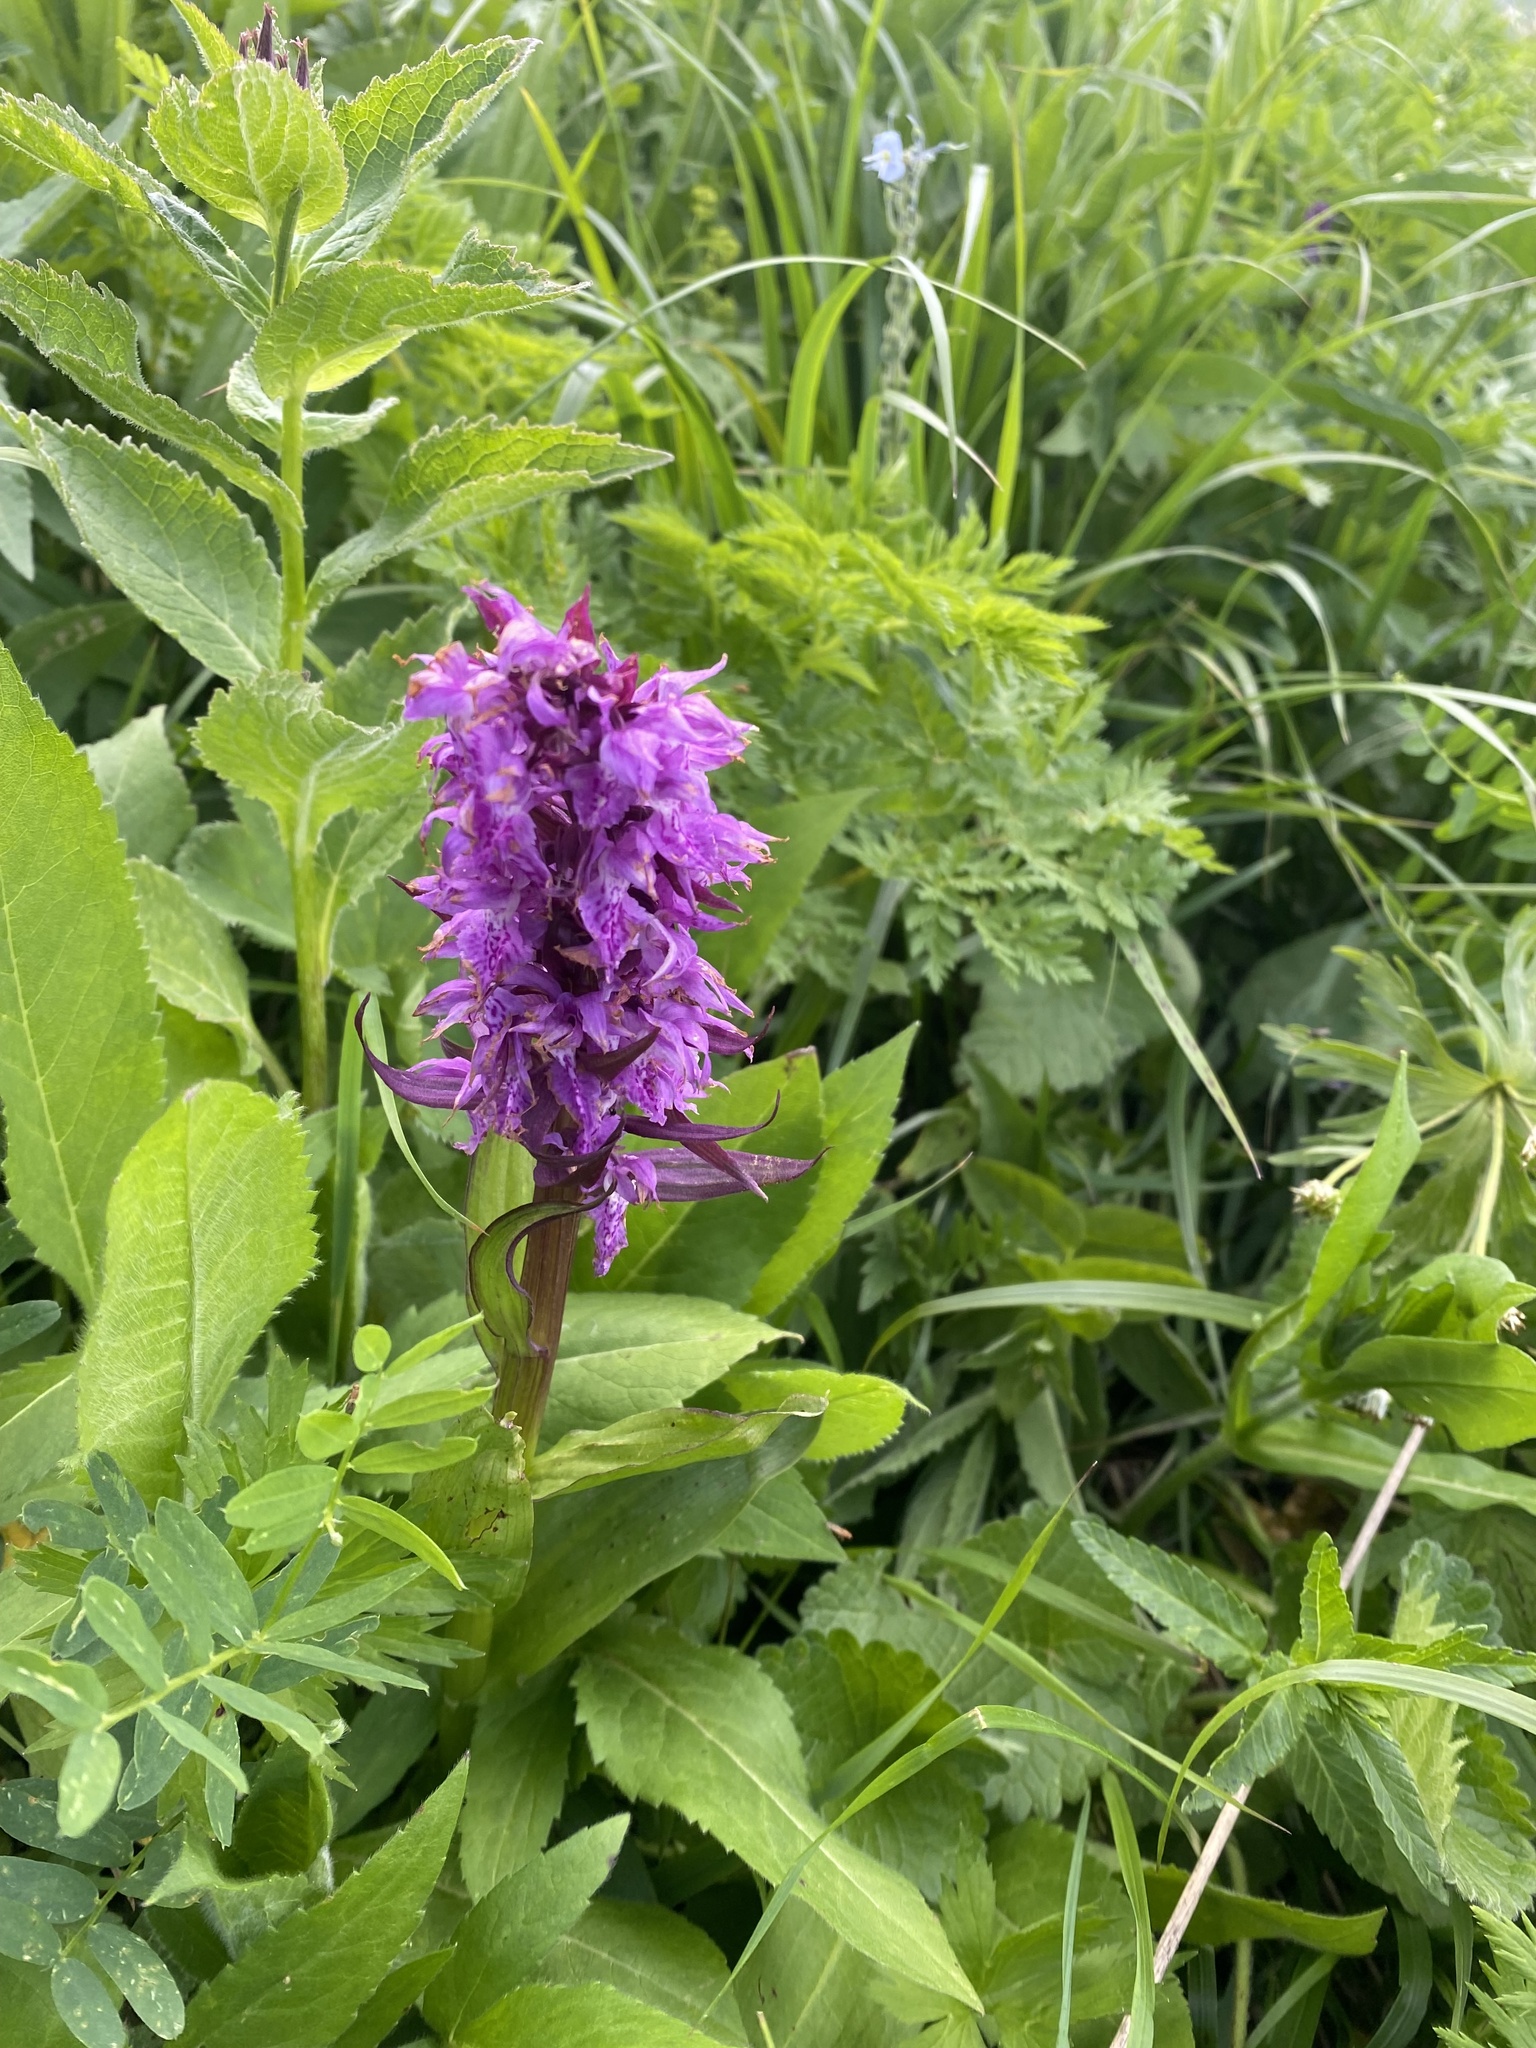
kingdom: Plantae
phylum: Tracheophyta
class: Liliopsida
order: Asparagales
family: Orchidaceae
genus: Dactylorhiza
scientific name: Dactylorhiza euxina
